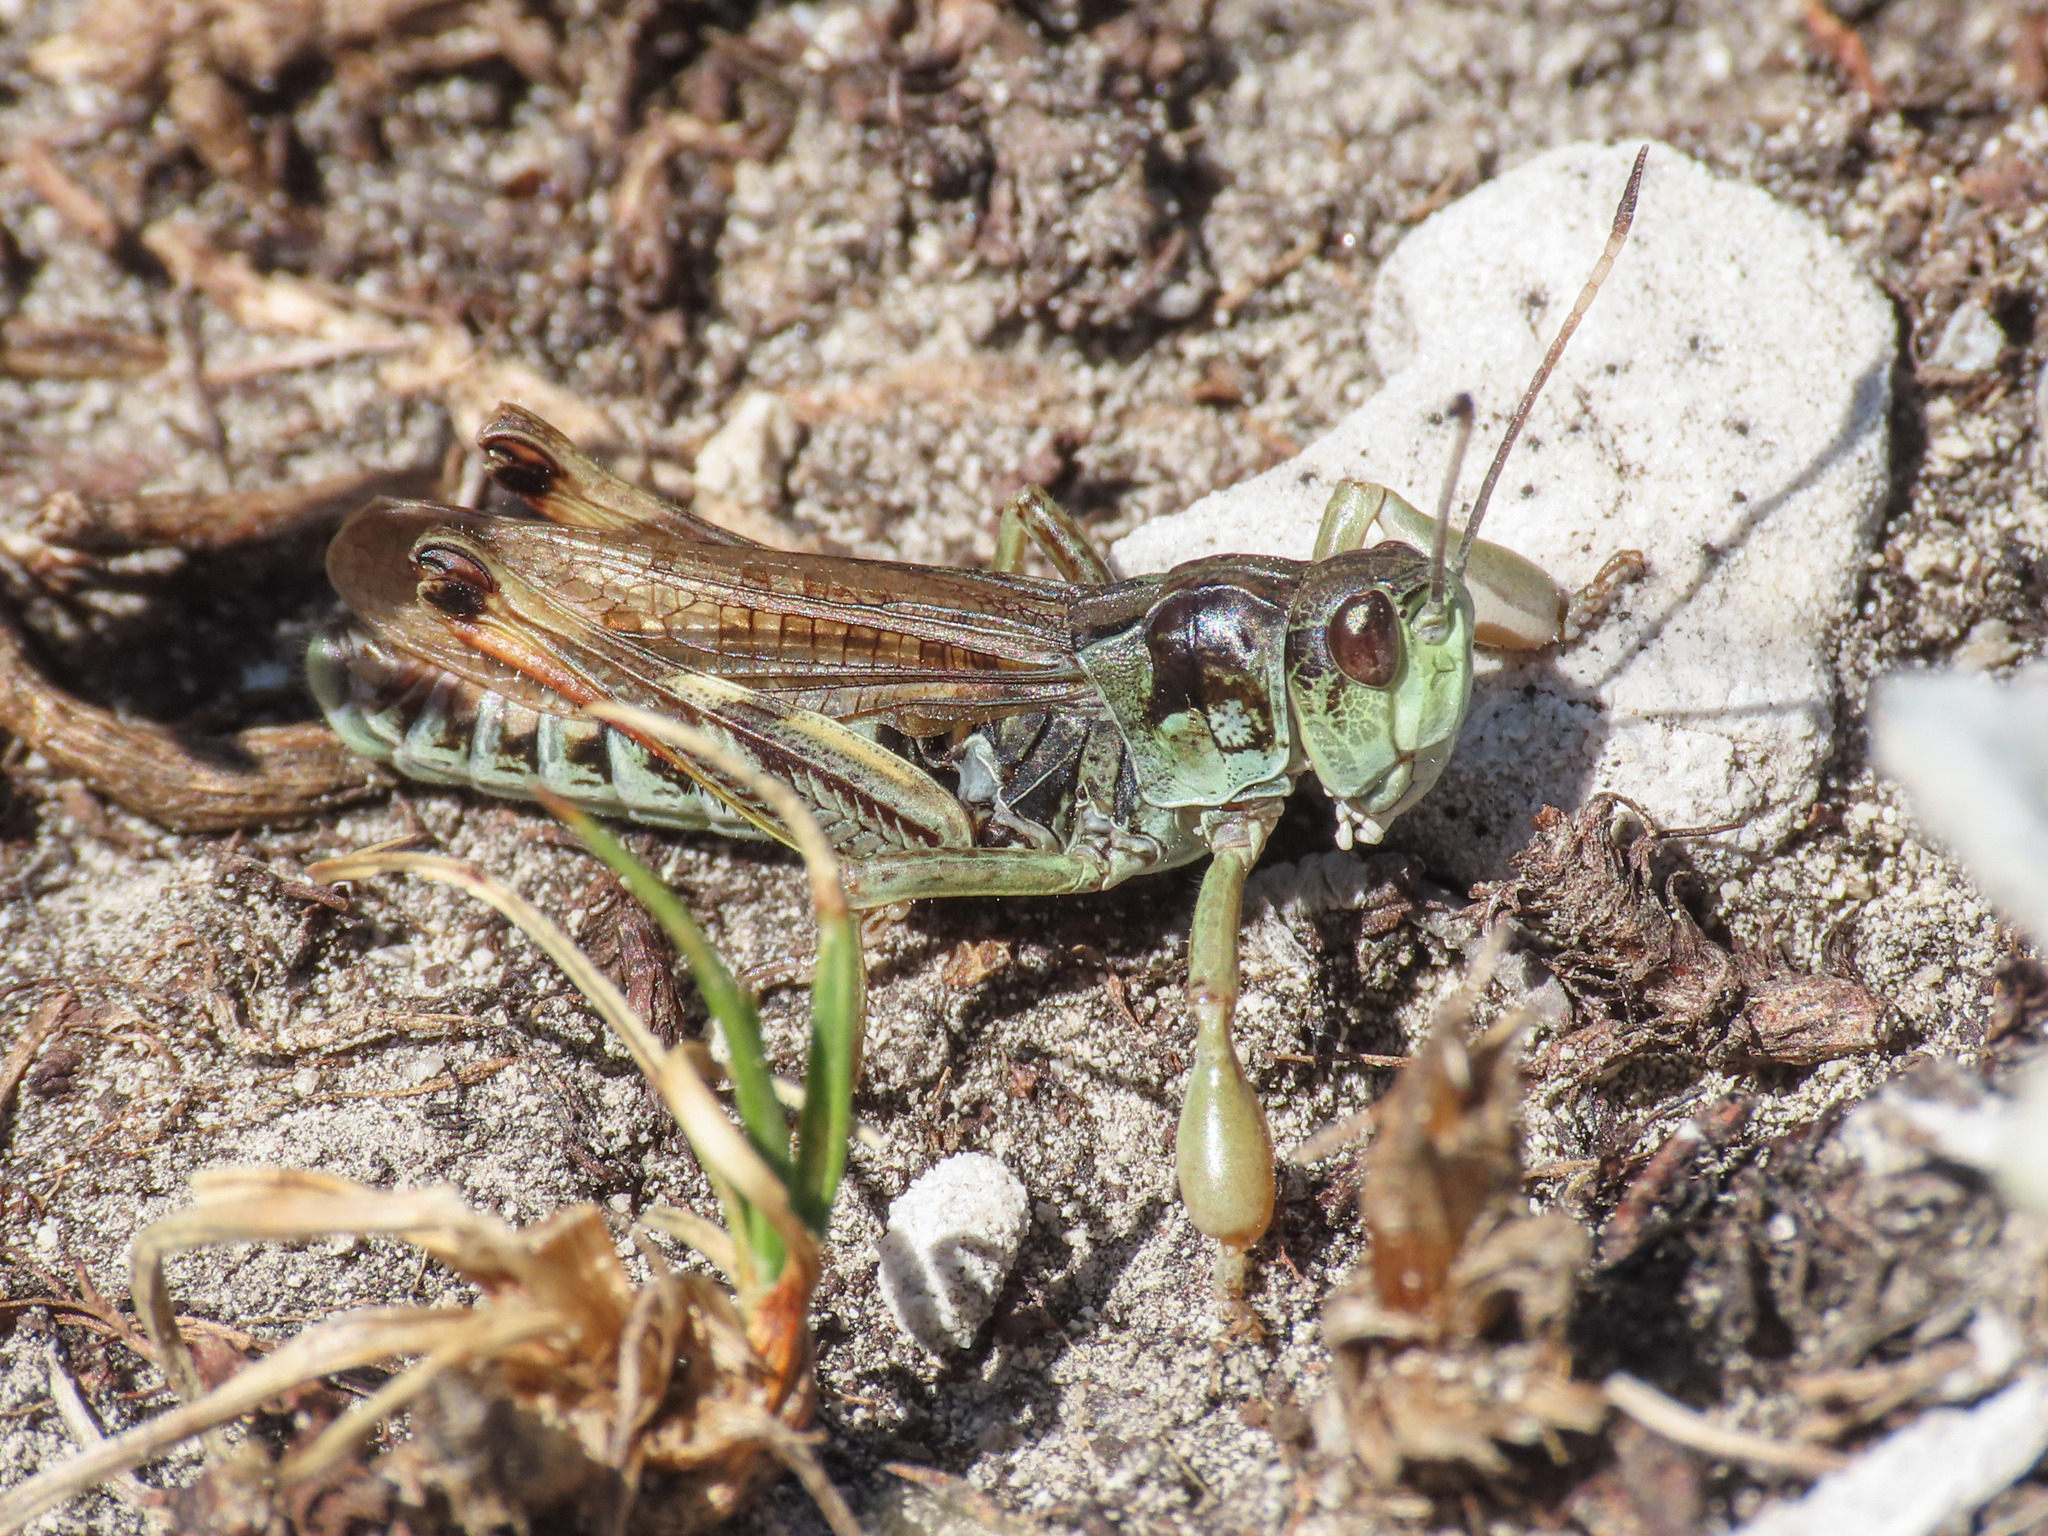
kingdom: Animalia
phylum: Arthropoda
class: Insecta
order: Orthoptera
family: Acrididae
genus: Gomphocerus
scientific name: Gomphocerus sibiricus
